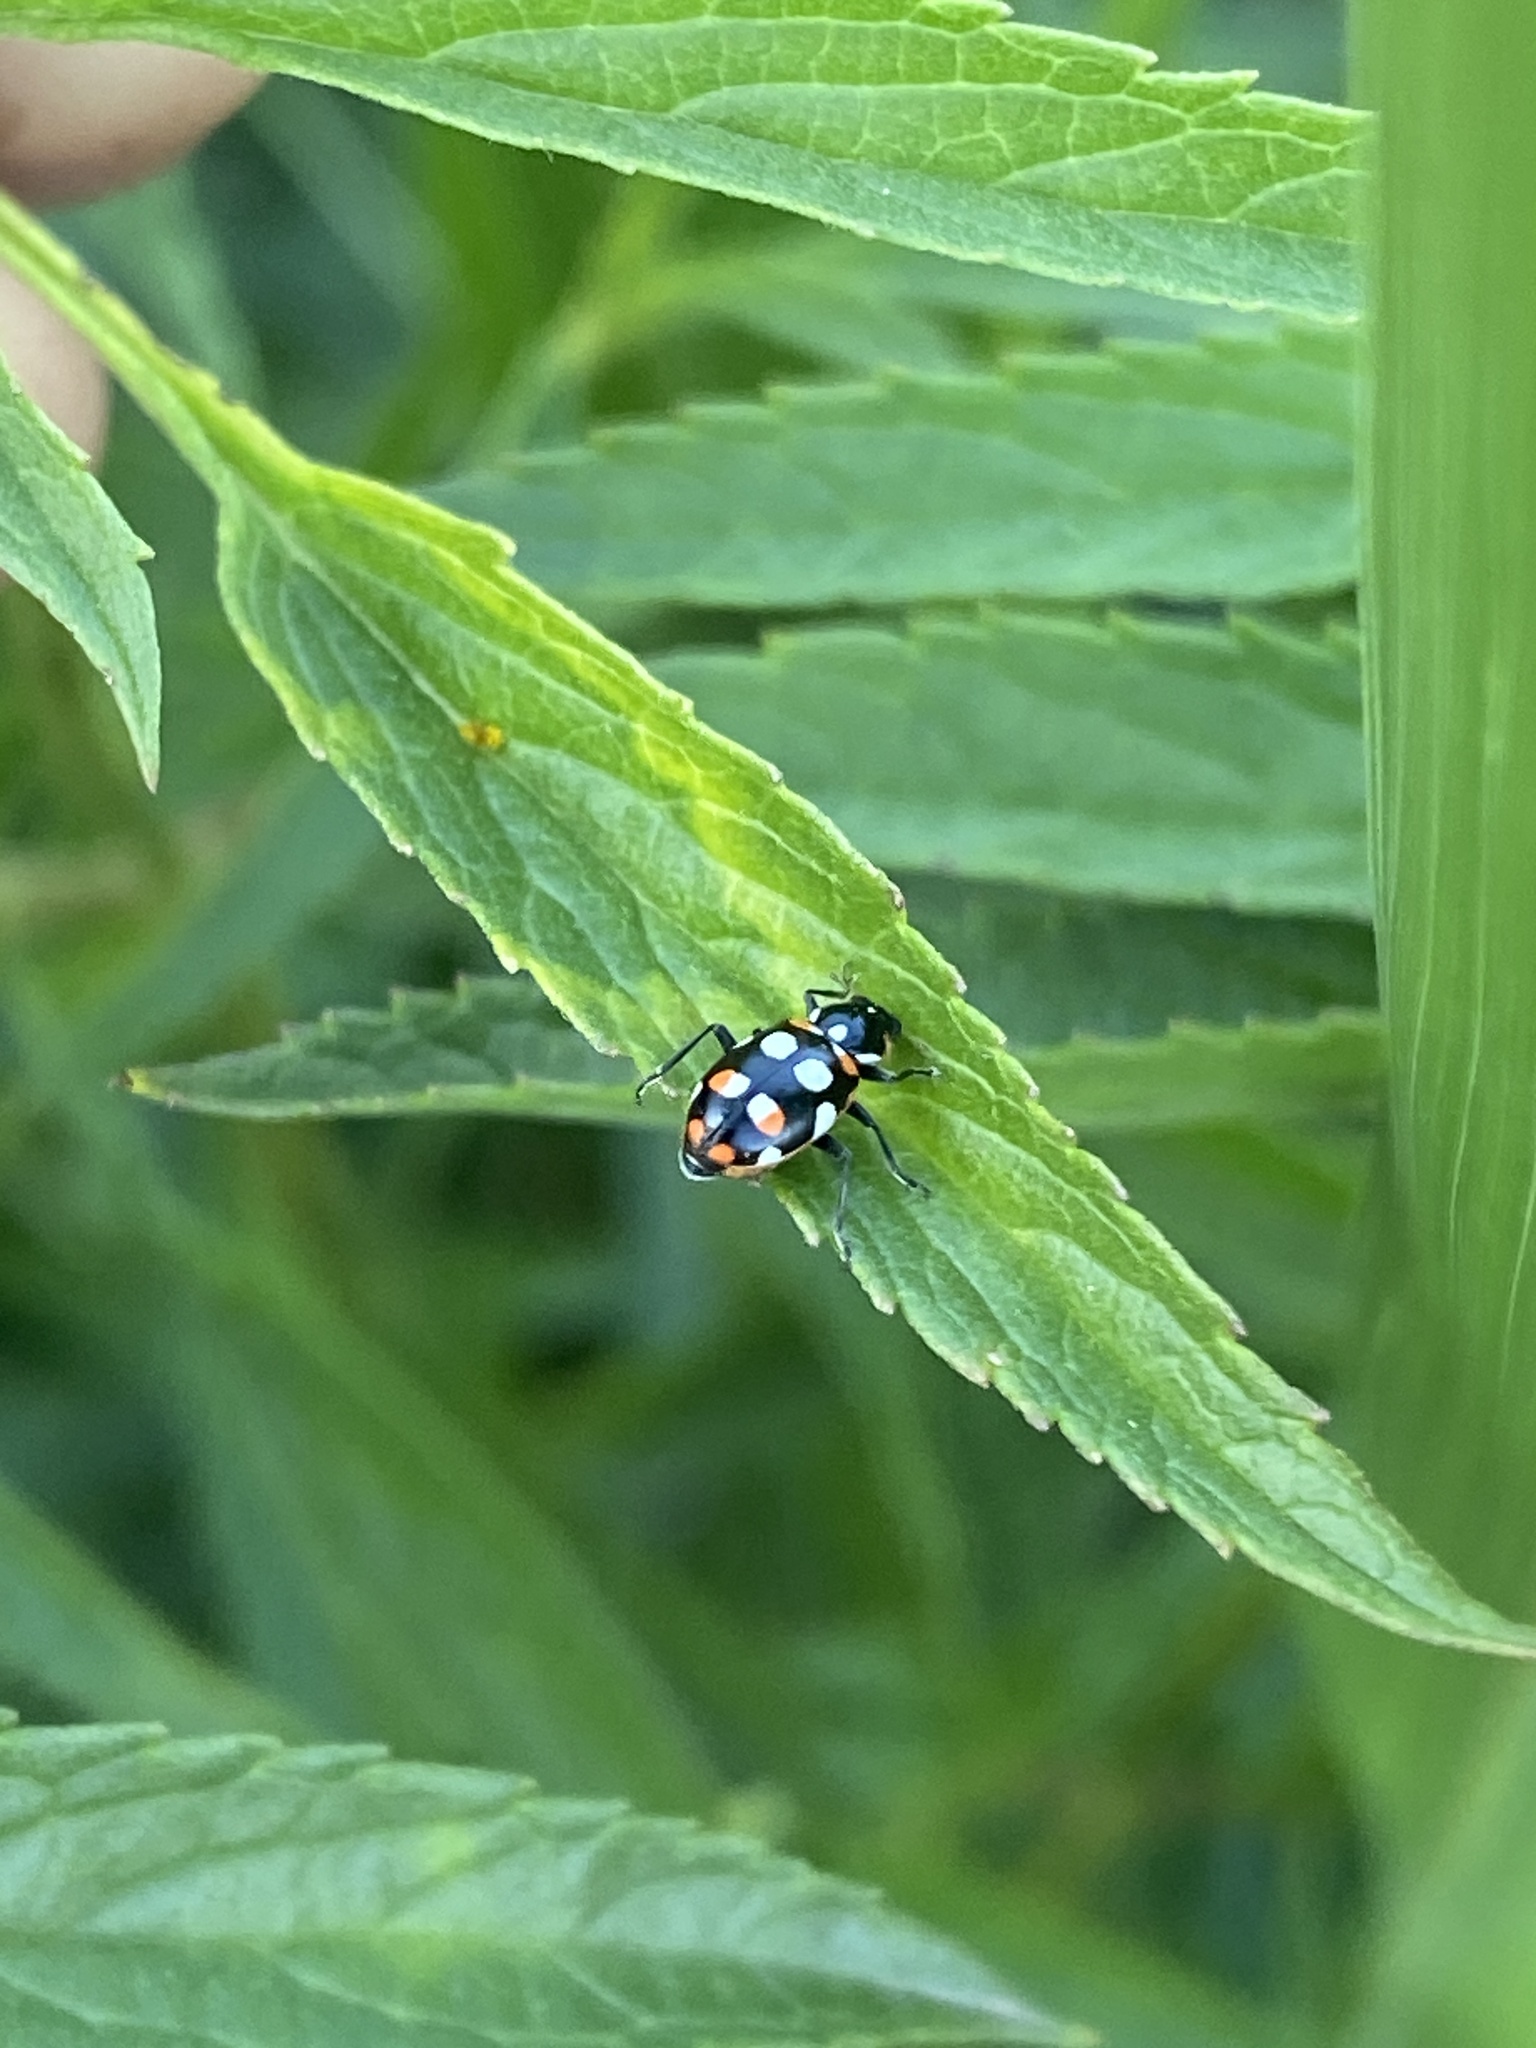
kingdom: Animalia
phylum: Arthropoda
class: Insecta
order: Coleoptera
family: Coccinellidae
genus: Eriopis
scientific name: Eriopis connexa
